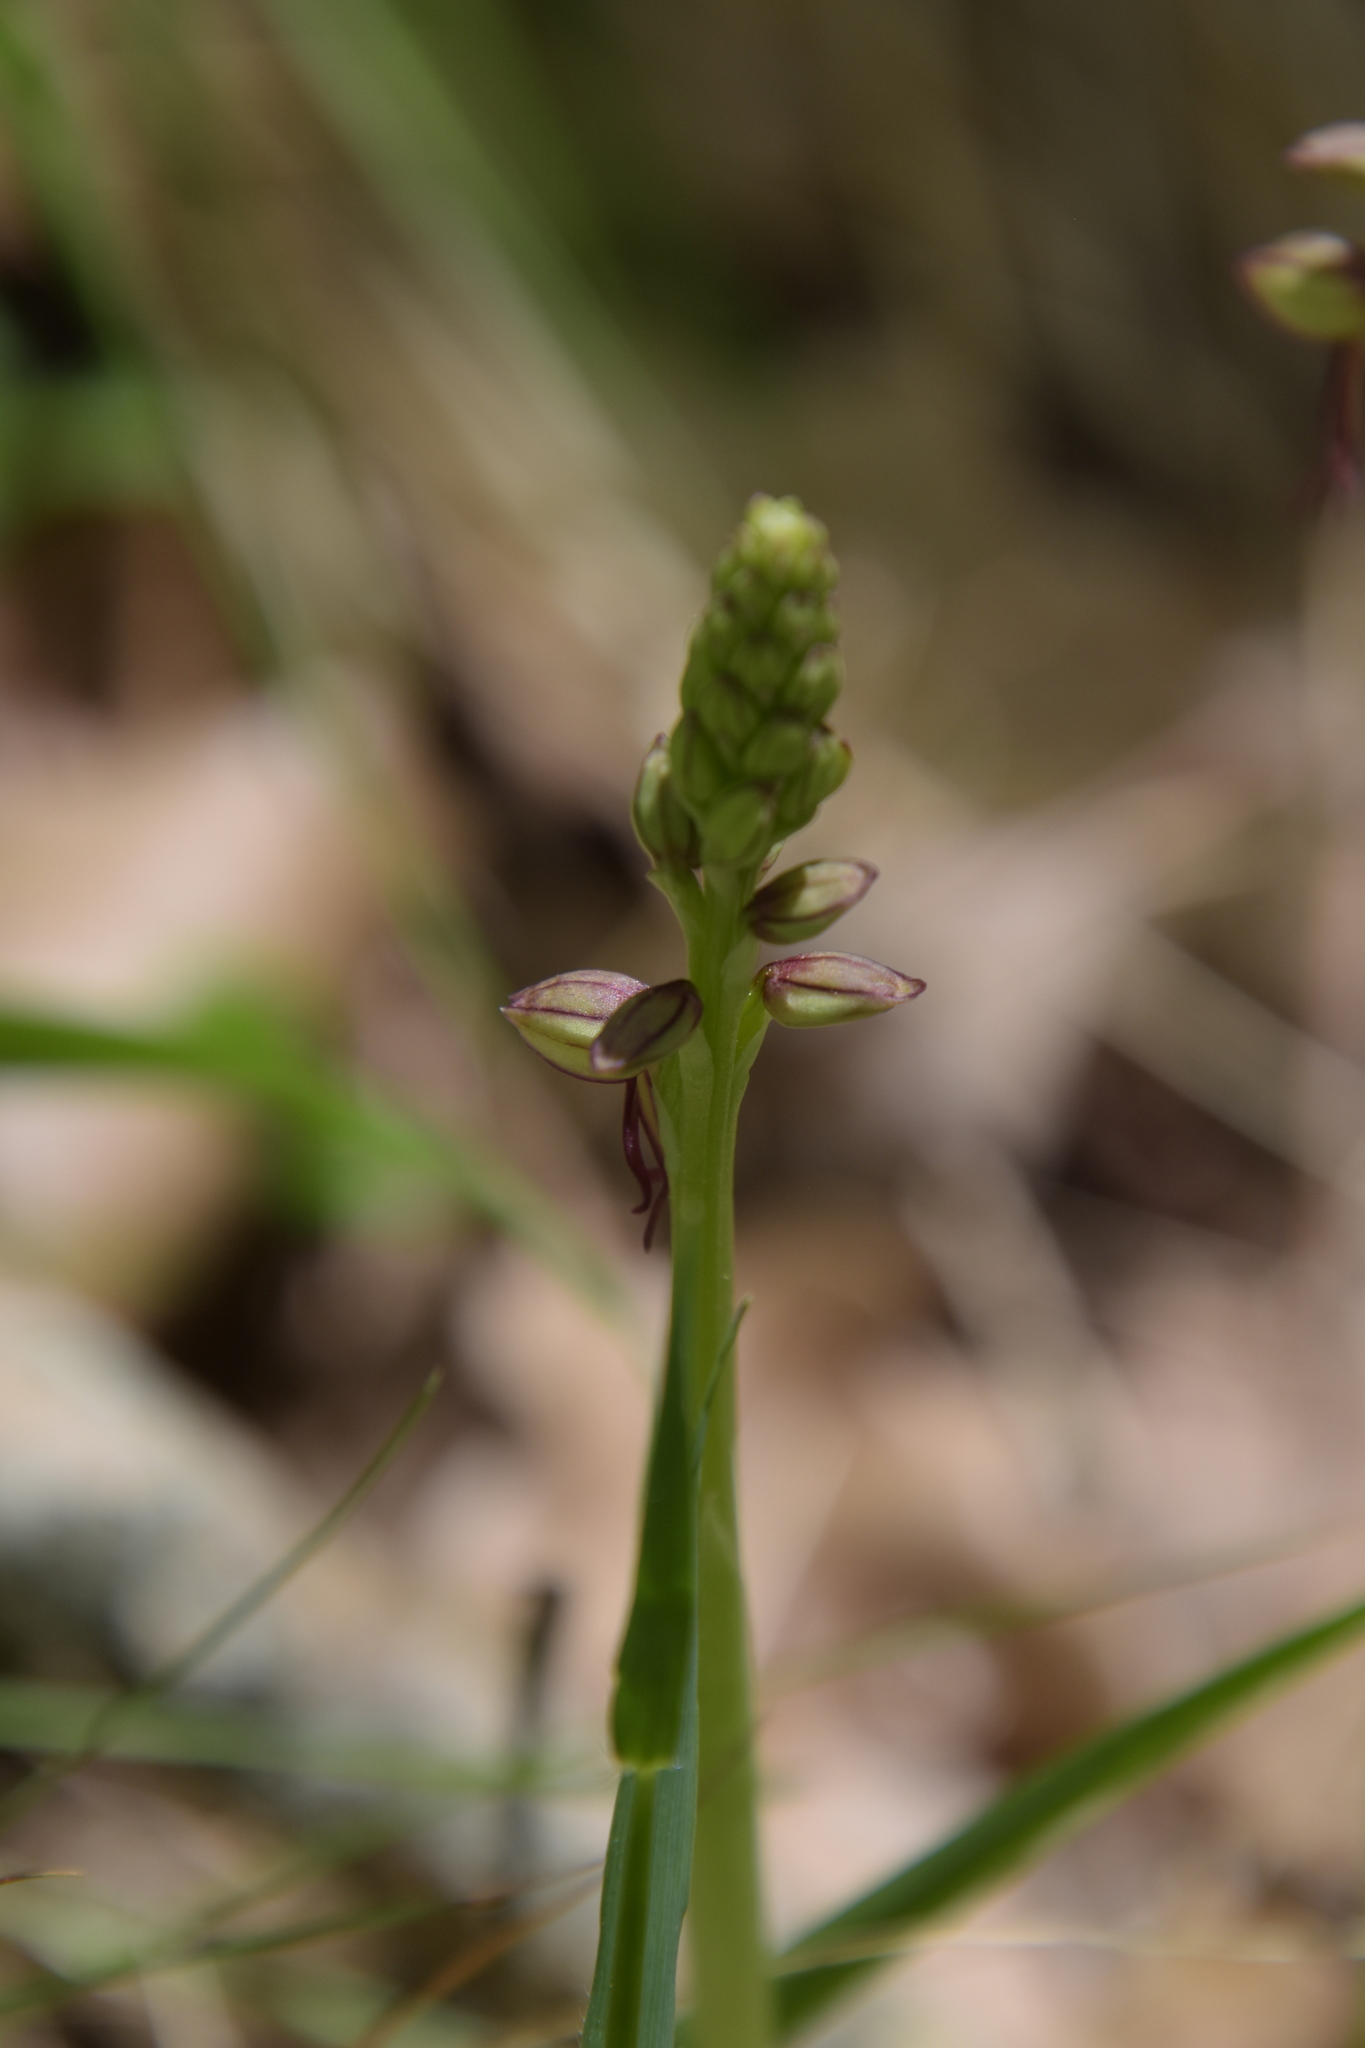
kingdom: Plantae
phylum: Tracheophyta
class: Liliopsida
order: Asparagales
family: Orchidaceae
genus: Orchis
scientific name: Orchis anthropophora
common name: Man orchid
